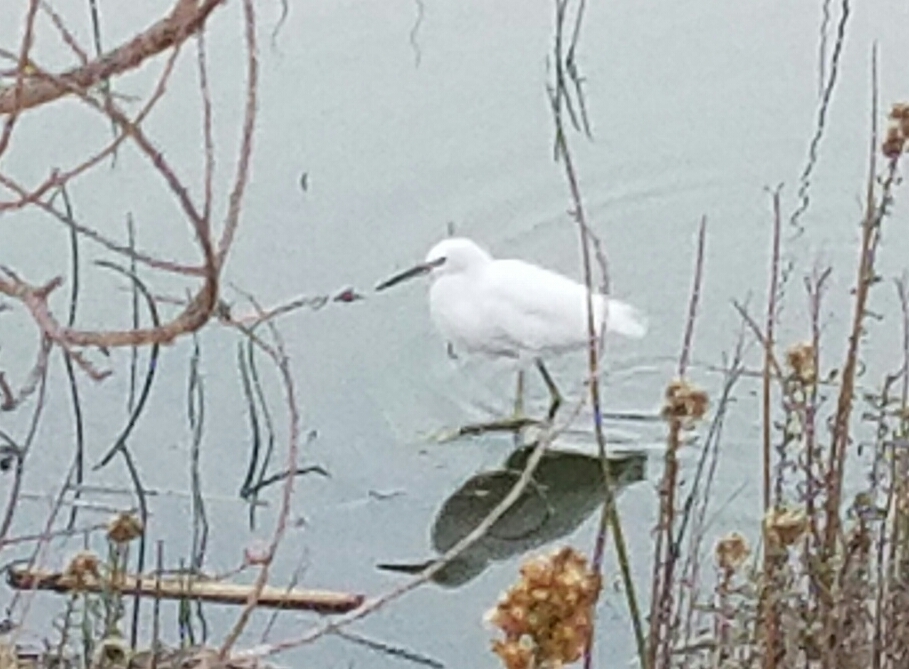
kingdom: Animalia
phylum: Chordata
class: Aves
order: Pelecaniformes
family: Ardeidae
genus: Egretta
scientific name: Egretta thula
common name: Snowy egret
